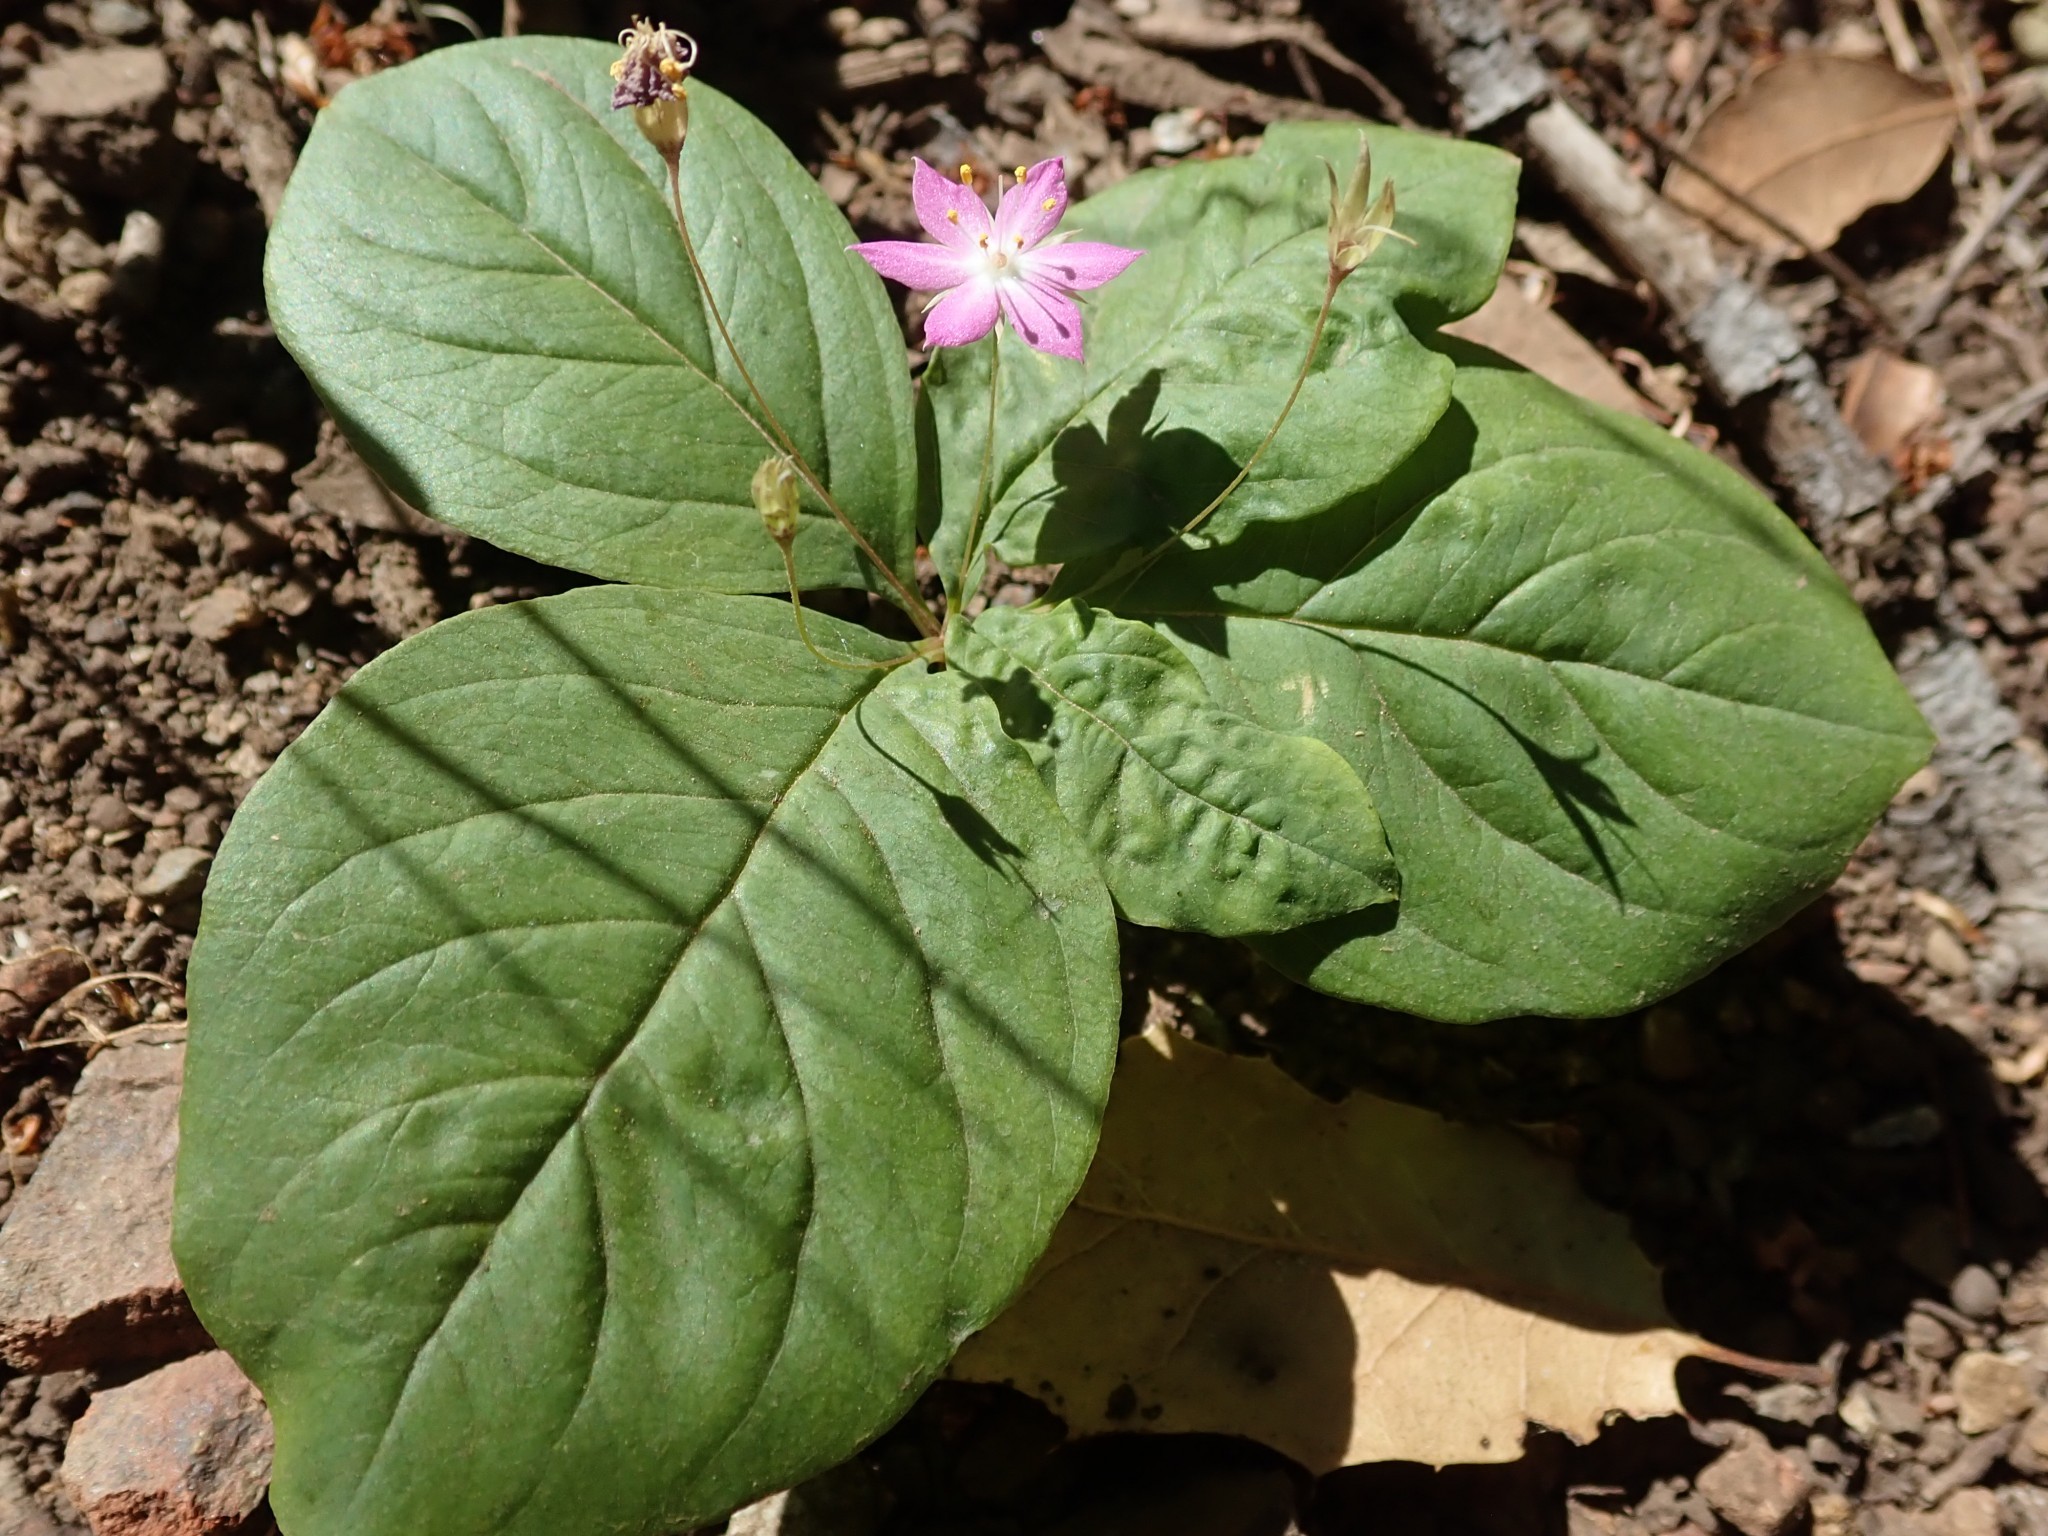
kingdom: Plantae
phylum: Tracheophyta
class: Magnoliopsida
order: Ericales
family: Primulaceae
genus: Lysimachia
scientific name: Lysimachia latifolia
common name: Pacific starflower
